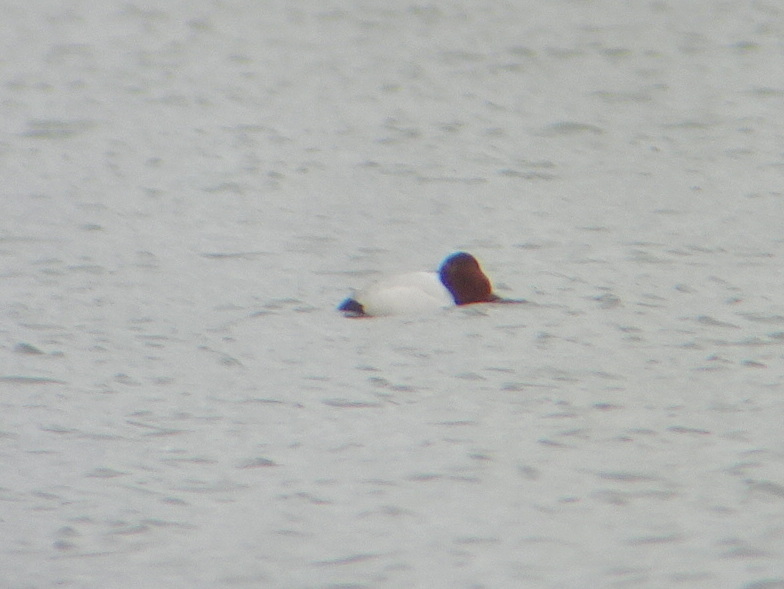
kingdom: Animalia
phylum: Chordata
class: Aves
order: Anseriformes
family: Anatidae
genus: Aythya
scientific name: Aythya valisineria
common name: Canvasback
